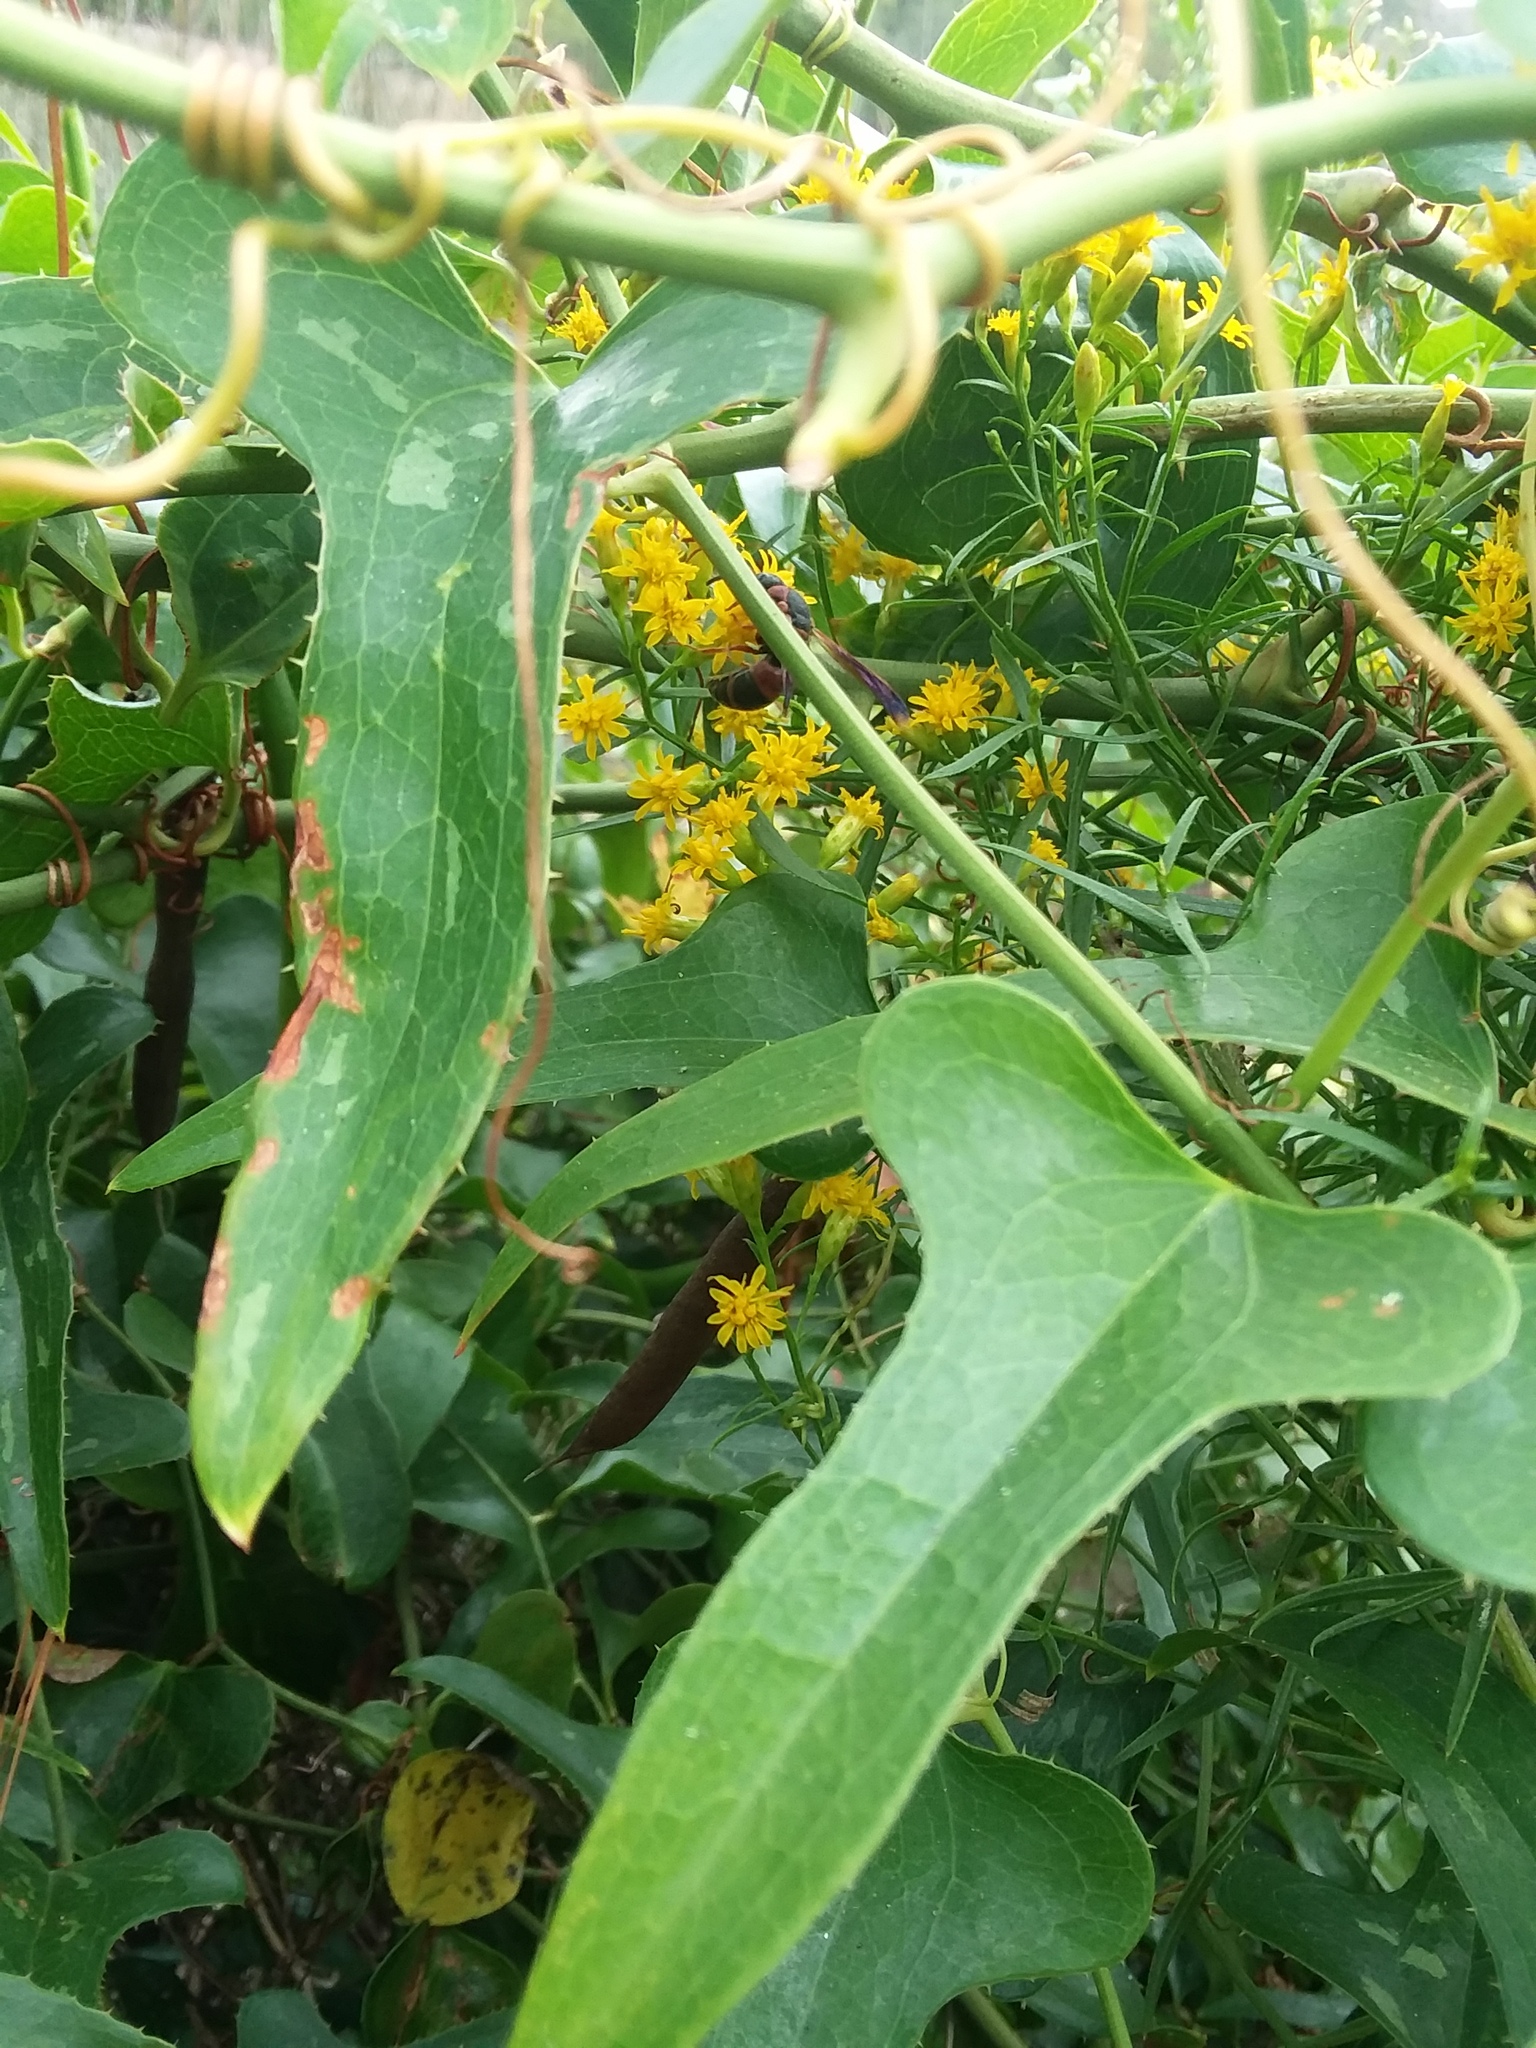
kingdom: Animalia
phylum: Arthropoda
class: Insecta
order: Hymenoptera
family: Eumenidae
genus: Pachodynerus
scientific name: Pachodynerus erynnis
